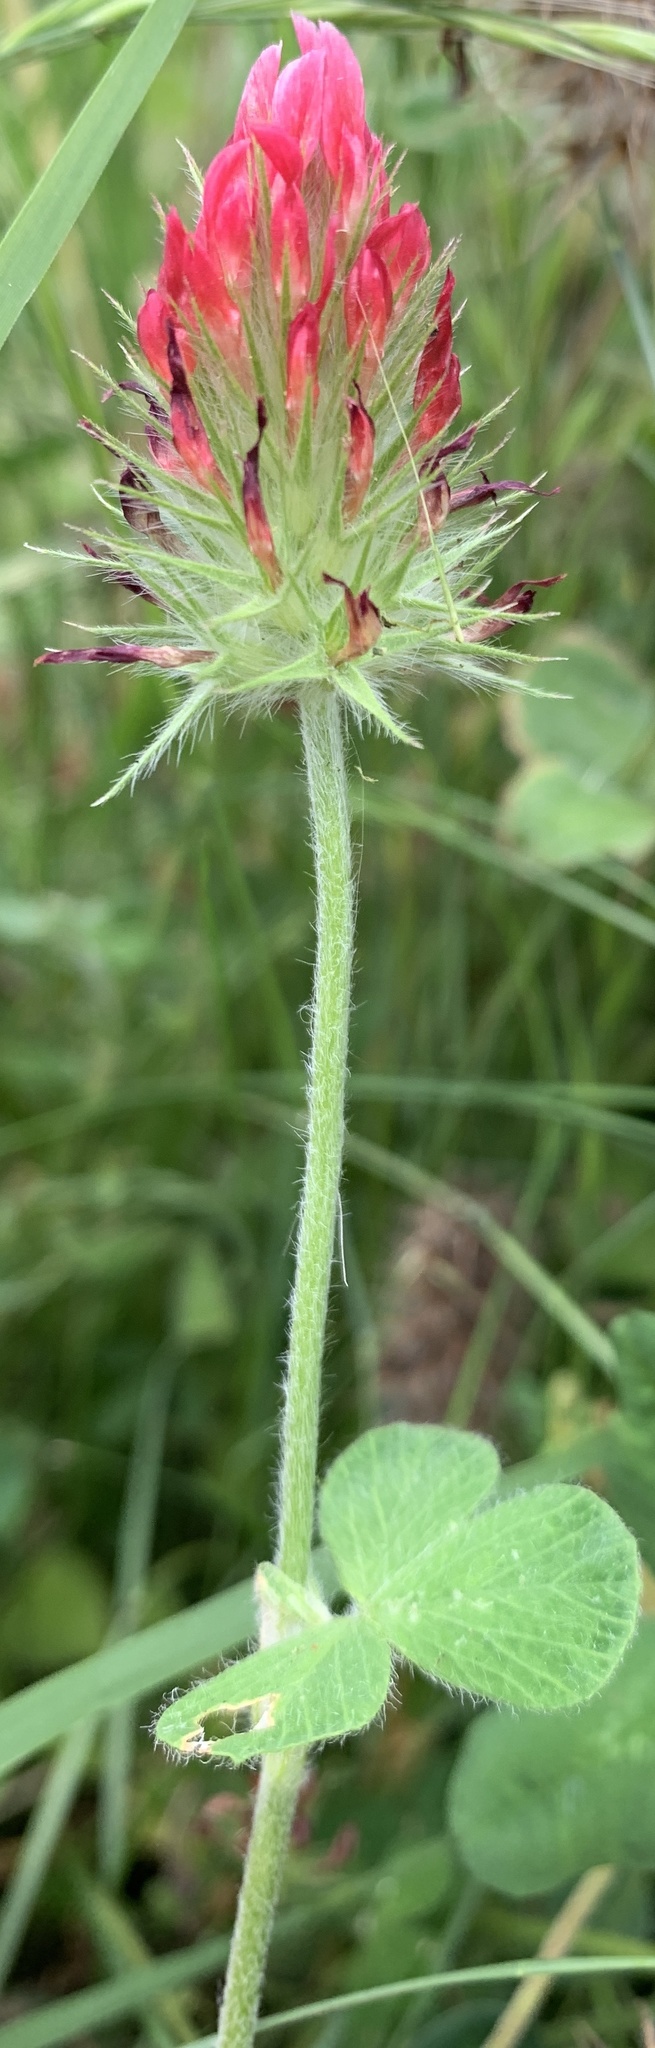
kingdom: Plantae
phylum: Tracheophyta
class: Magnoliopsida
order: Fabales
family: Fabaceae
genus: Trifolium
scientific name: Trifolium incarnatum
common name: Crimson clover
